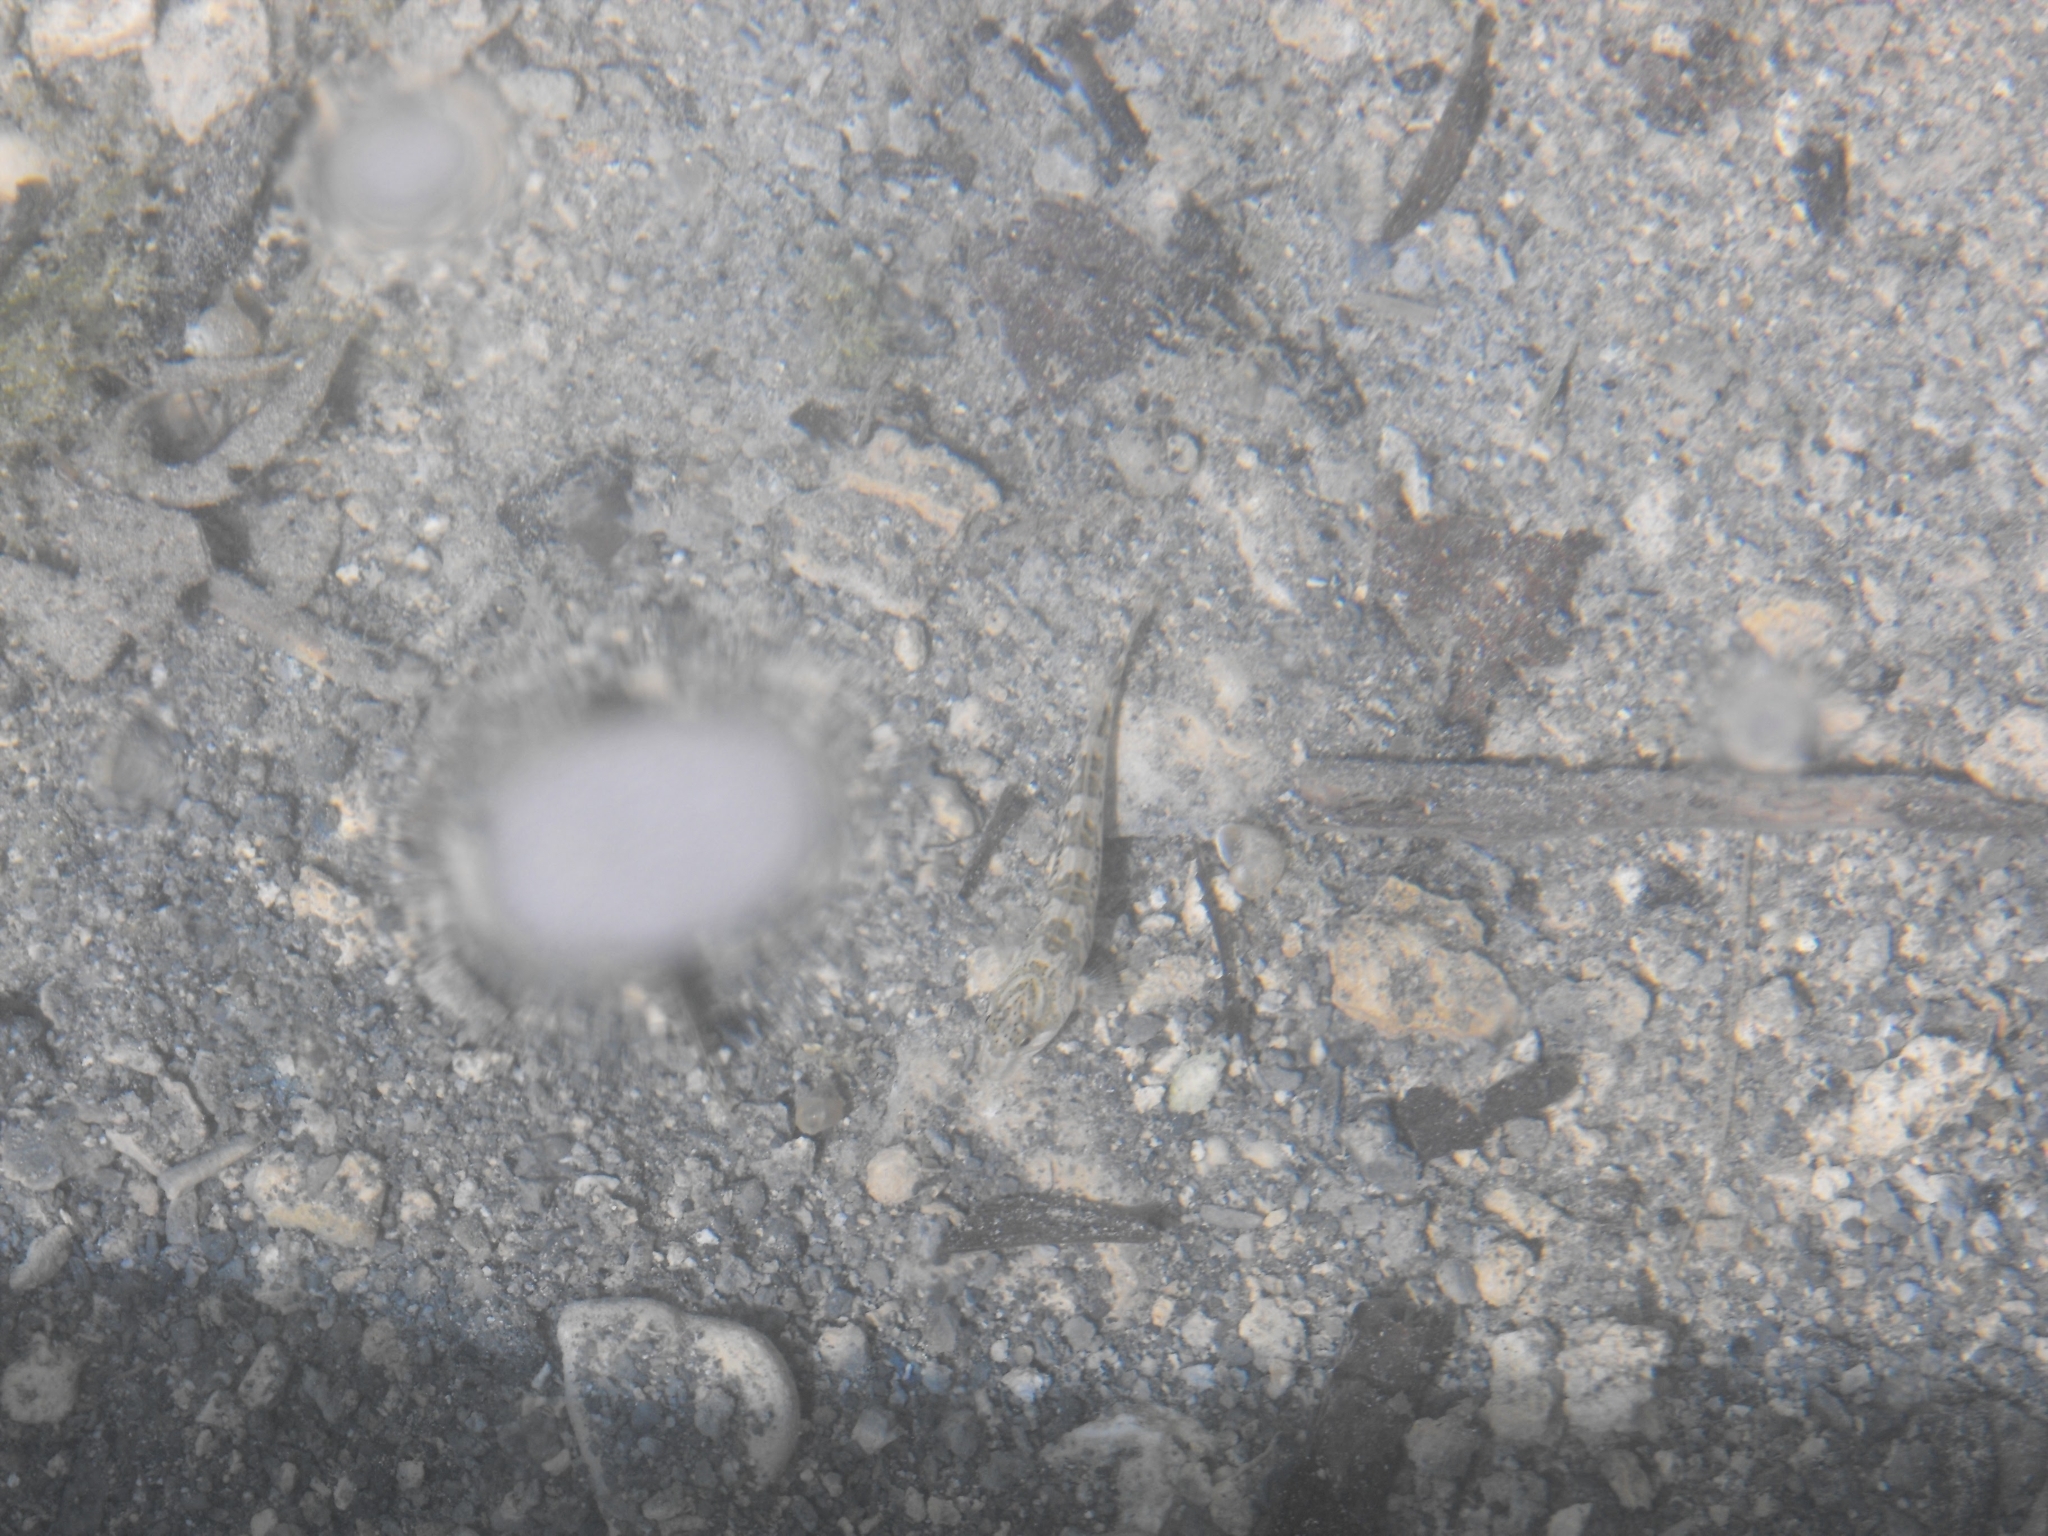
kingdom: Animalia
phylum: Chordata
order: Perciformes
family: Blenniidae
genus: Salaria
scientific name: Salaria fluviatilis
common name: Freshwater blenny
